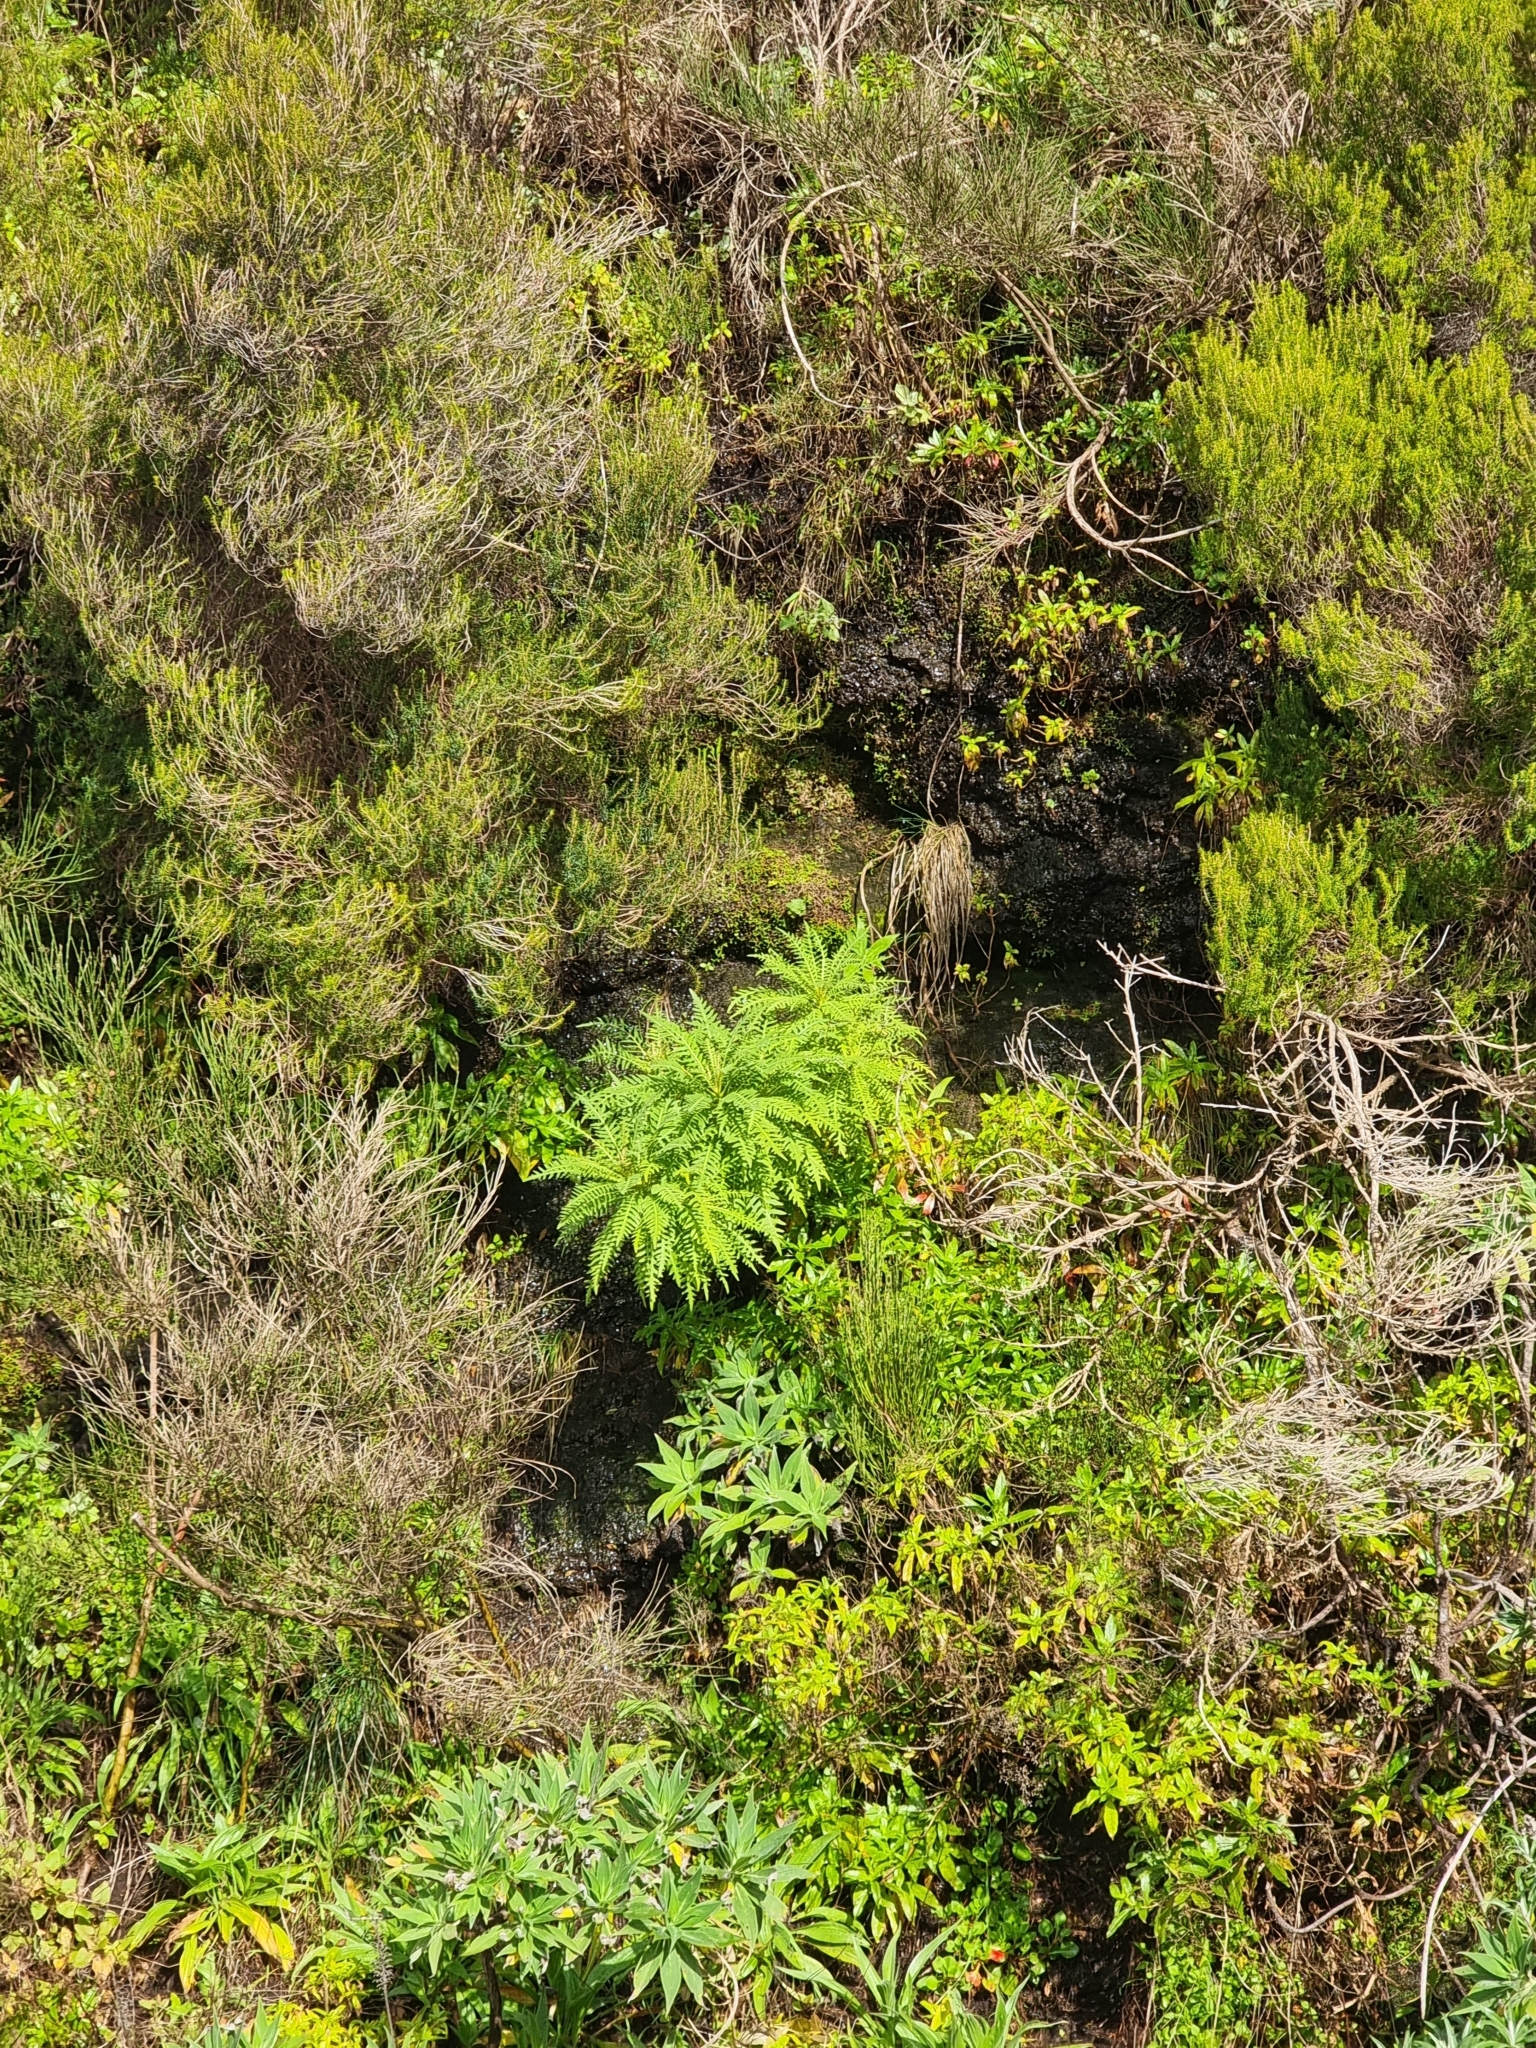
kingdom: Plantae
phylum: Tracheophyta
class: Magnoliopsida
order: Asterales
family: Asteraceae
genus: Sonchus
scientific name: Sonchus pinnatus
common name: Wing-leaved sow-thistle
